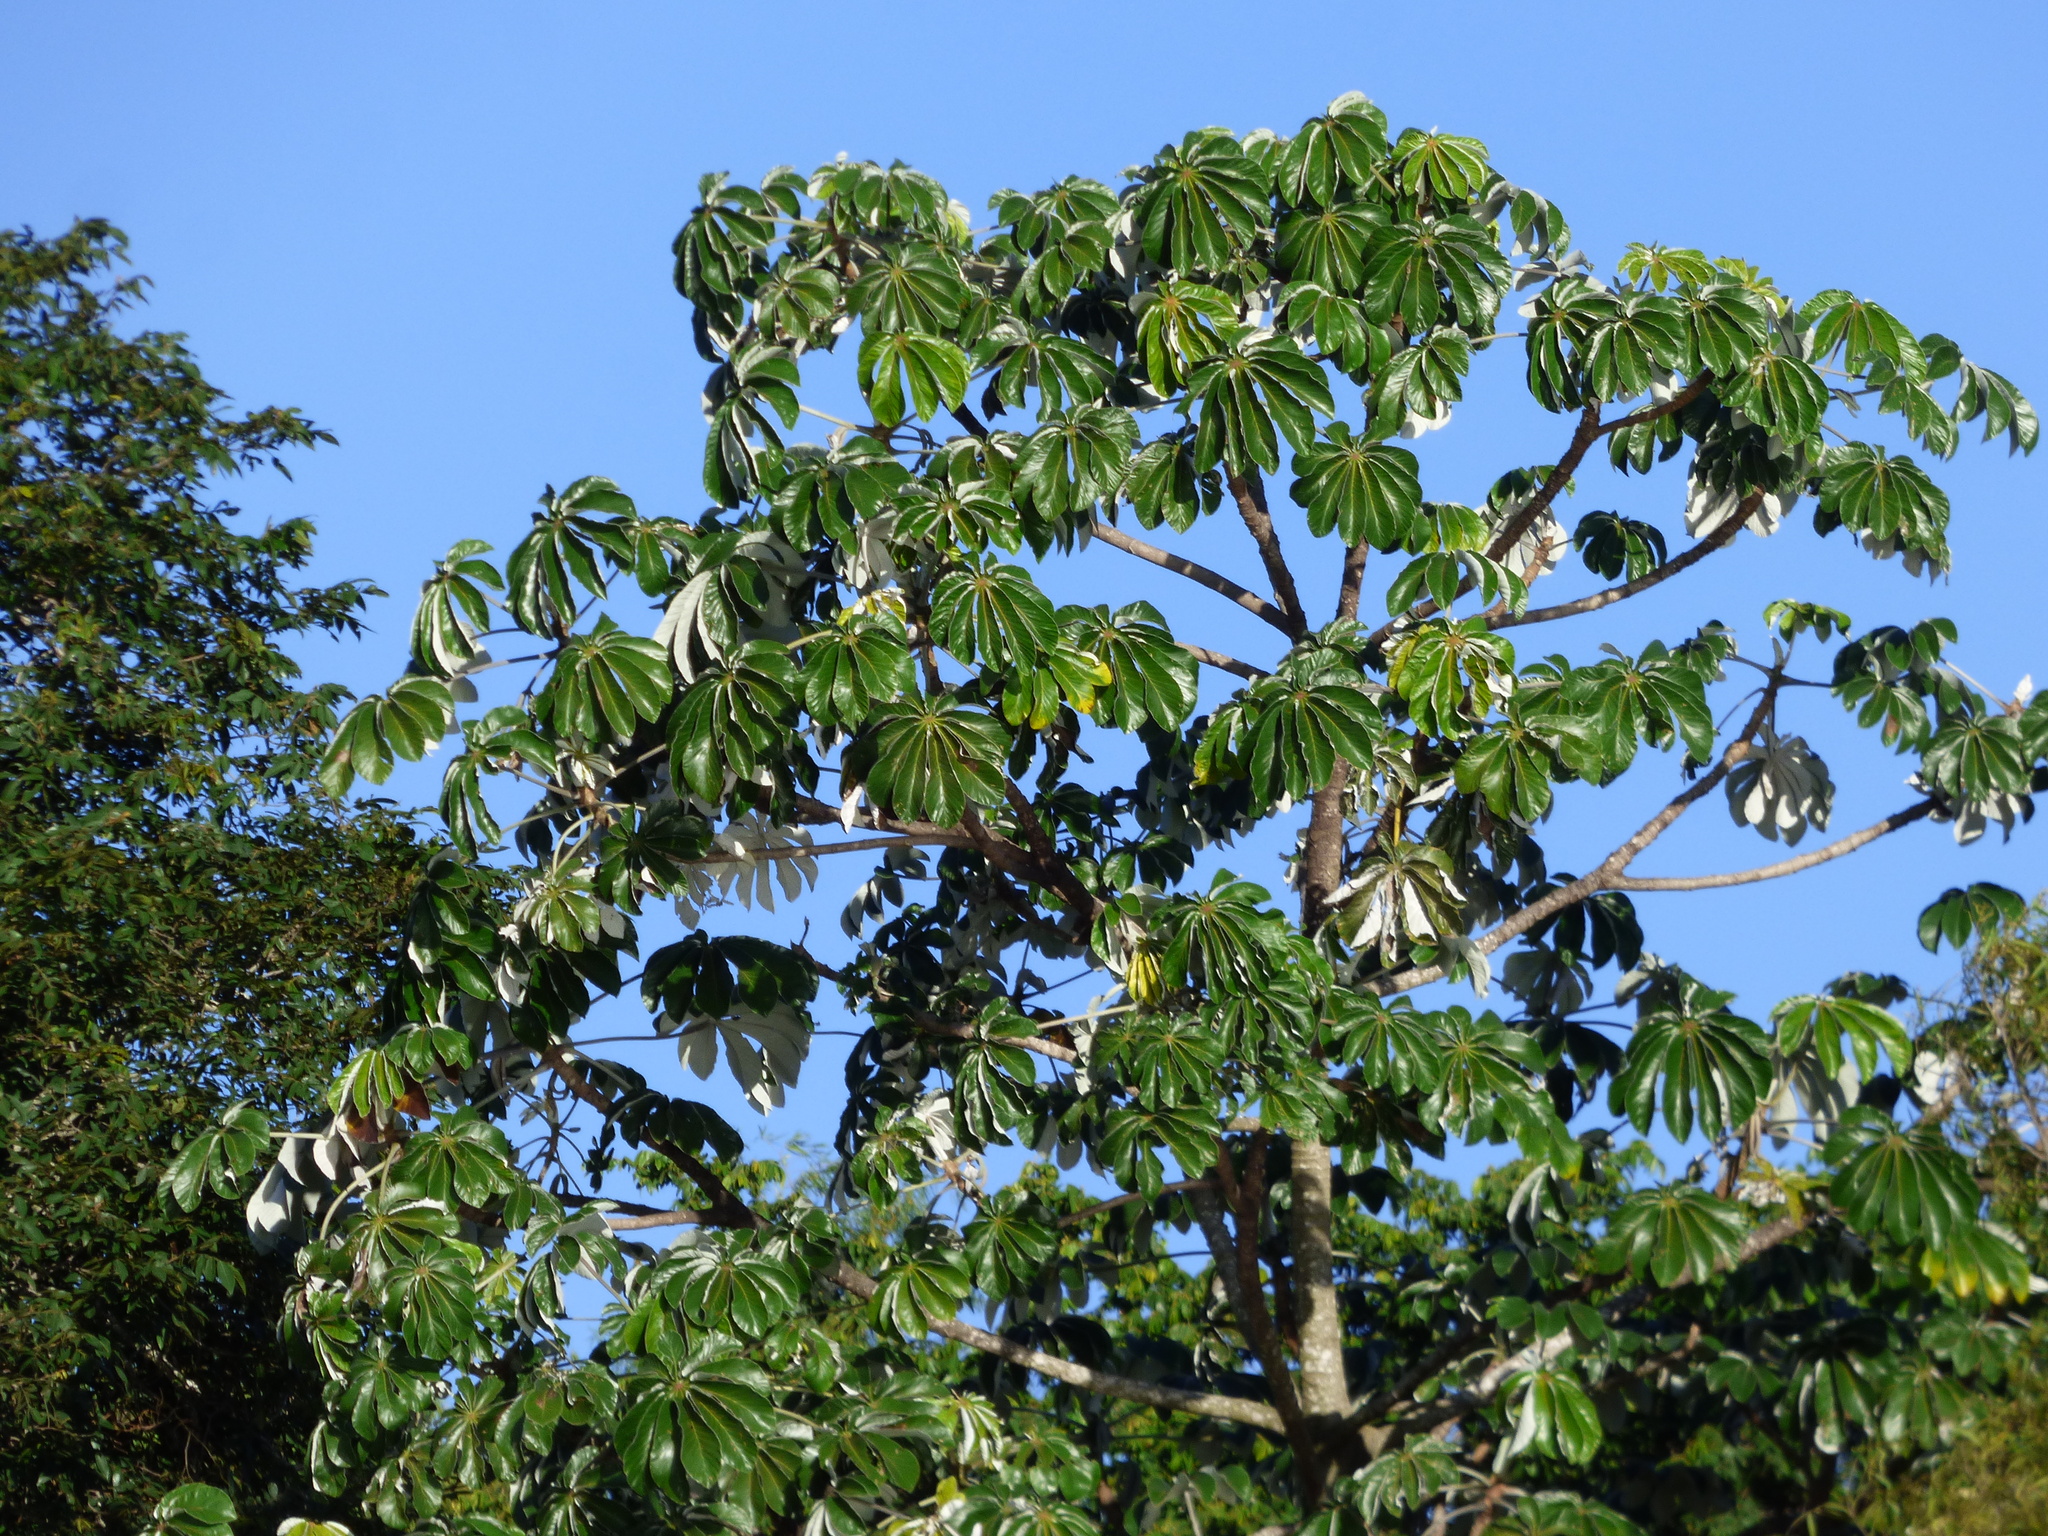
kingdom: Plantae
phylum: Tracheophyta
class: Magnoliopsida
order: Rosales
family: Urticaceae
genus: Cecropia
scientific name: Cecropia pachystachya
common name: Ambay pumpwood
